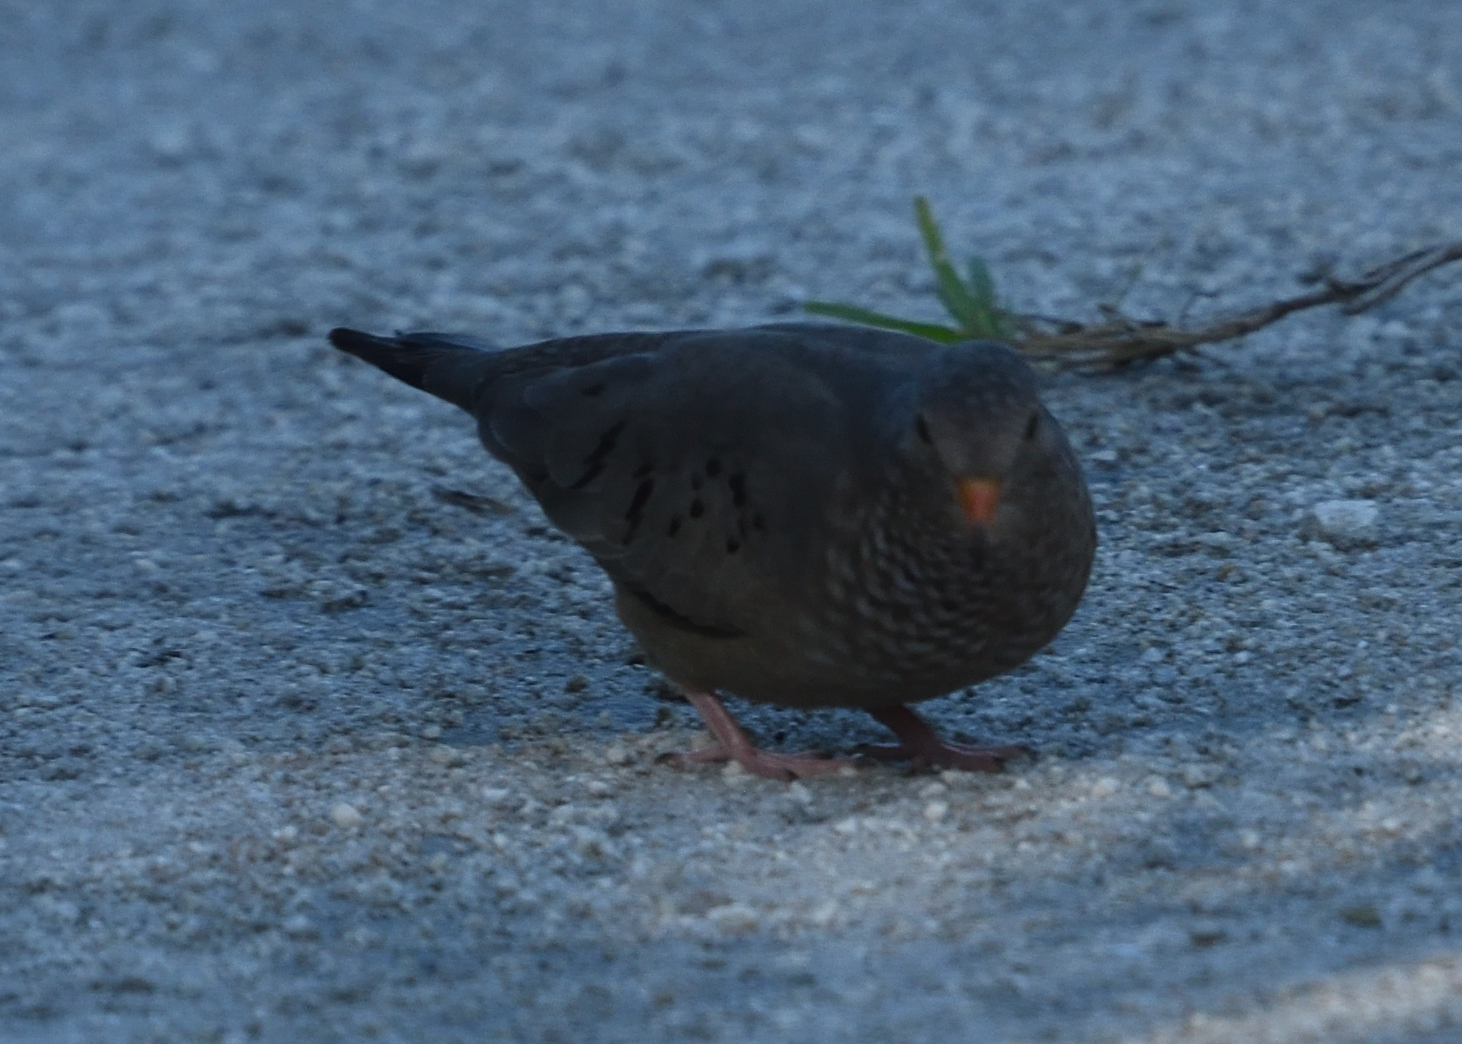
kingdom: Animalia
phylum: Chordata
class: Aves
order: Columbiformes
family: Columbidae
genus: Columbina
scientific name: Columbina passerina
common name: Common ground-dove
